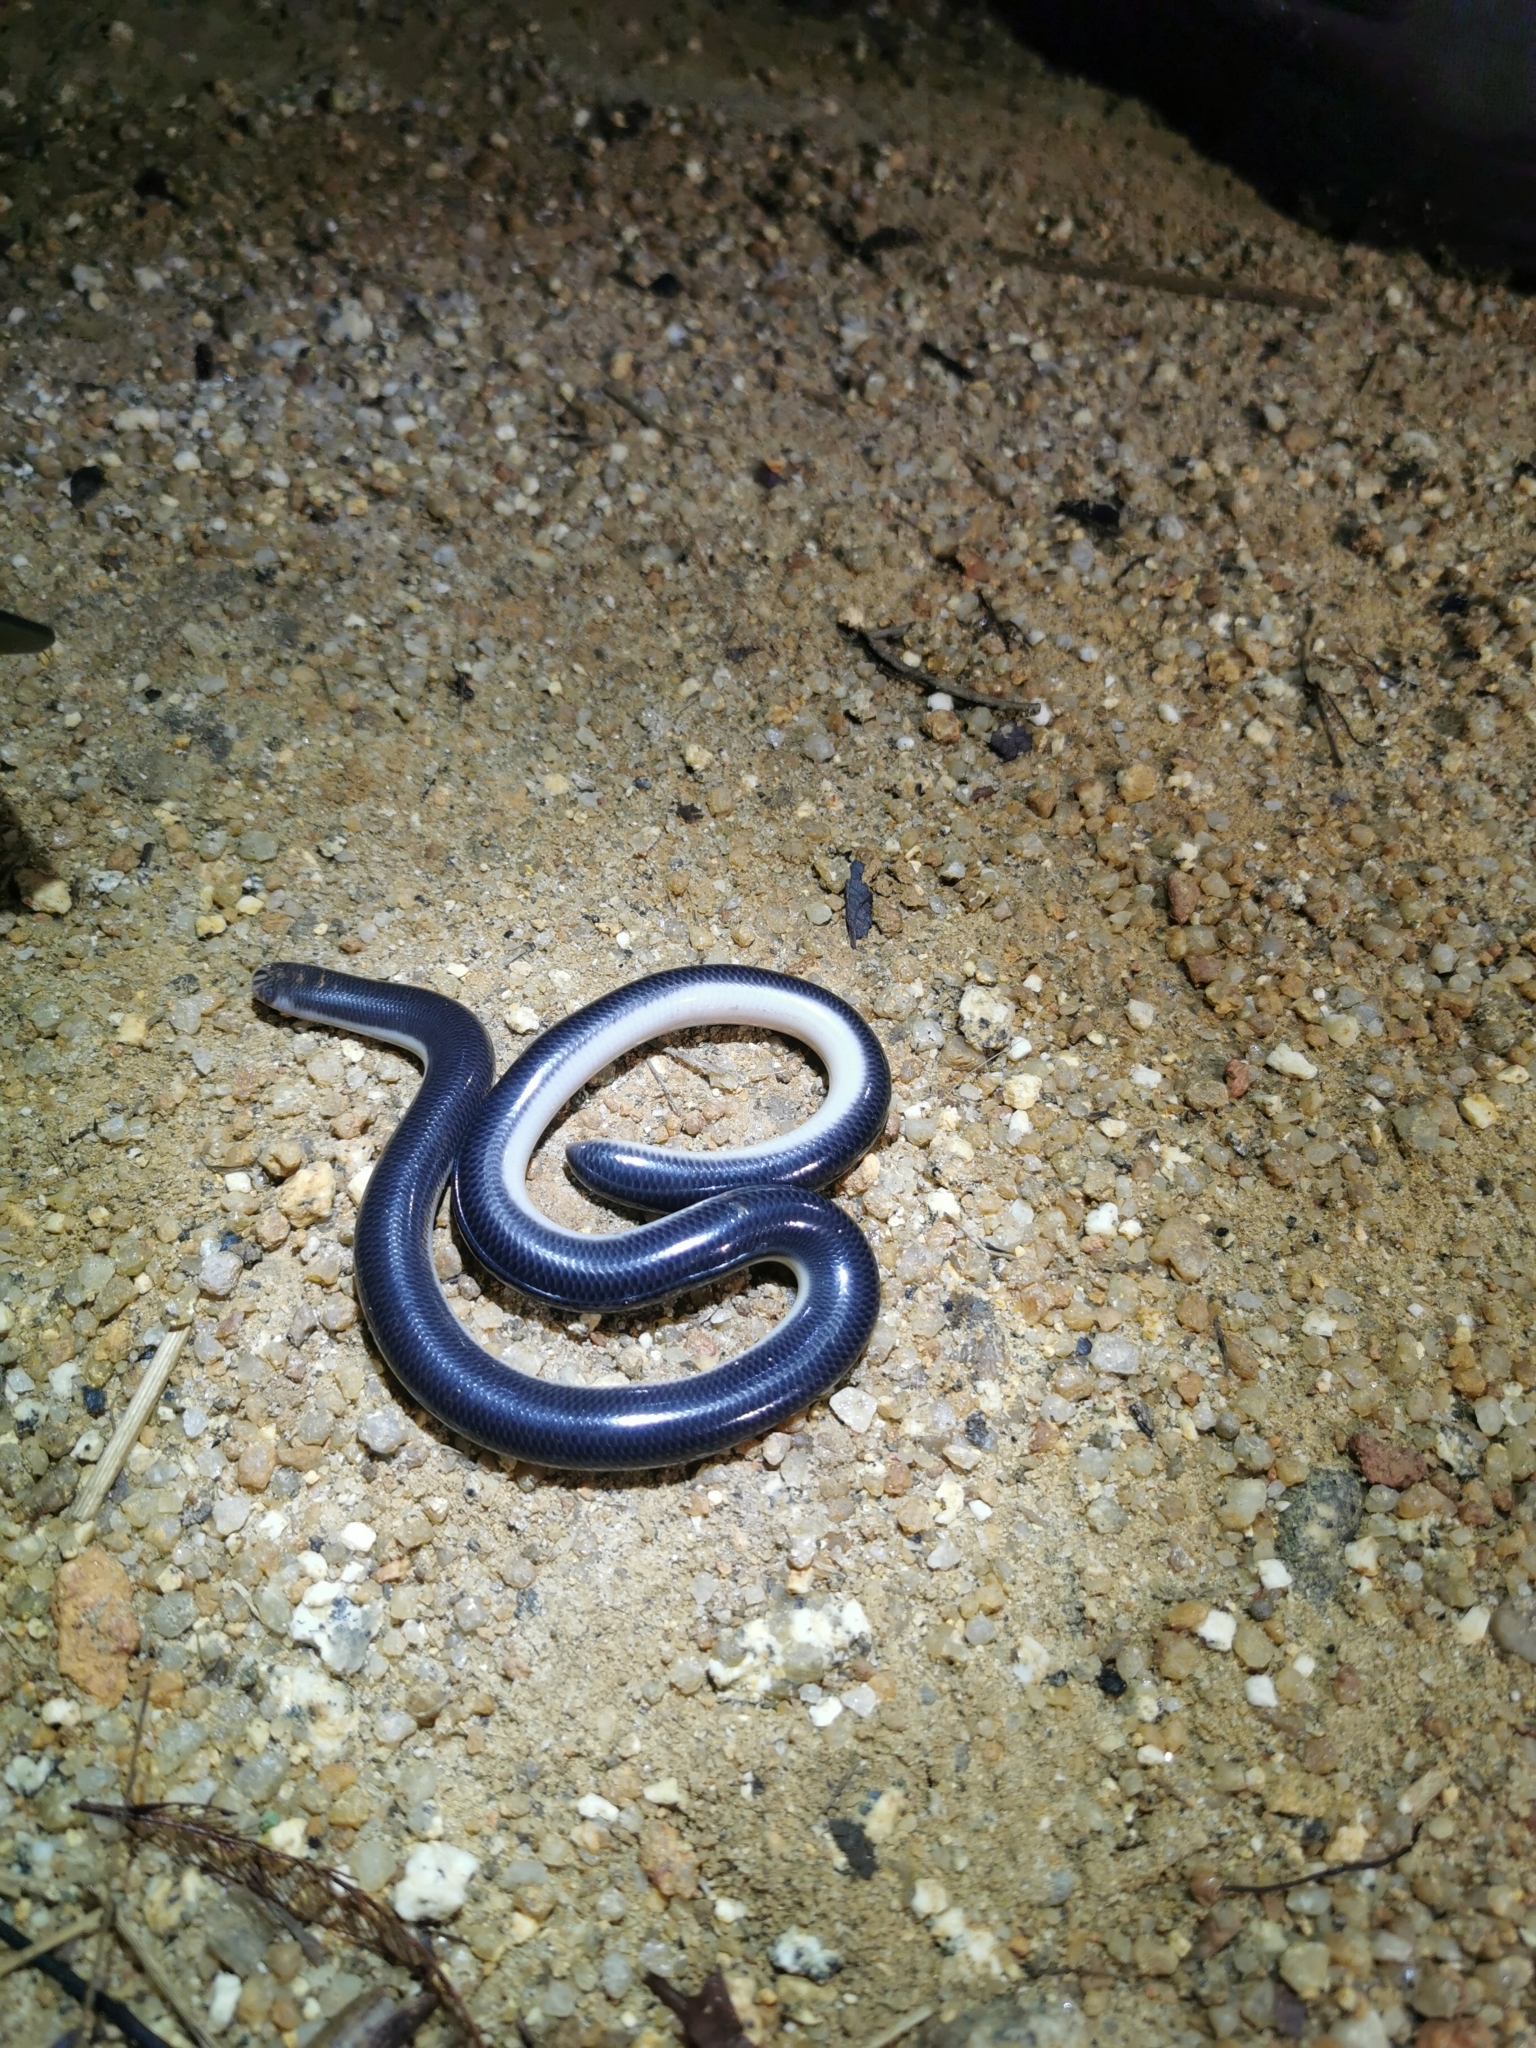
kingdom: Animalia
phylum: Chordata
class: Squamata
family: Typhlopidae
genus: Argyrophis
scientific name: Argyrophis muelleri
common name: Müller's blind snake
